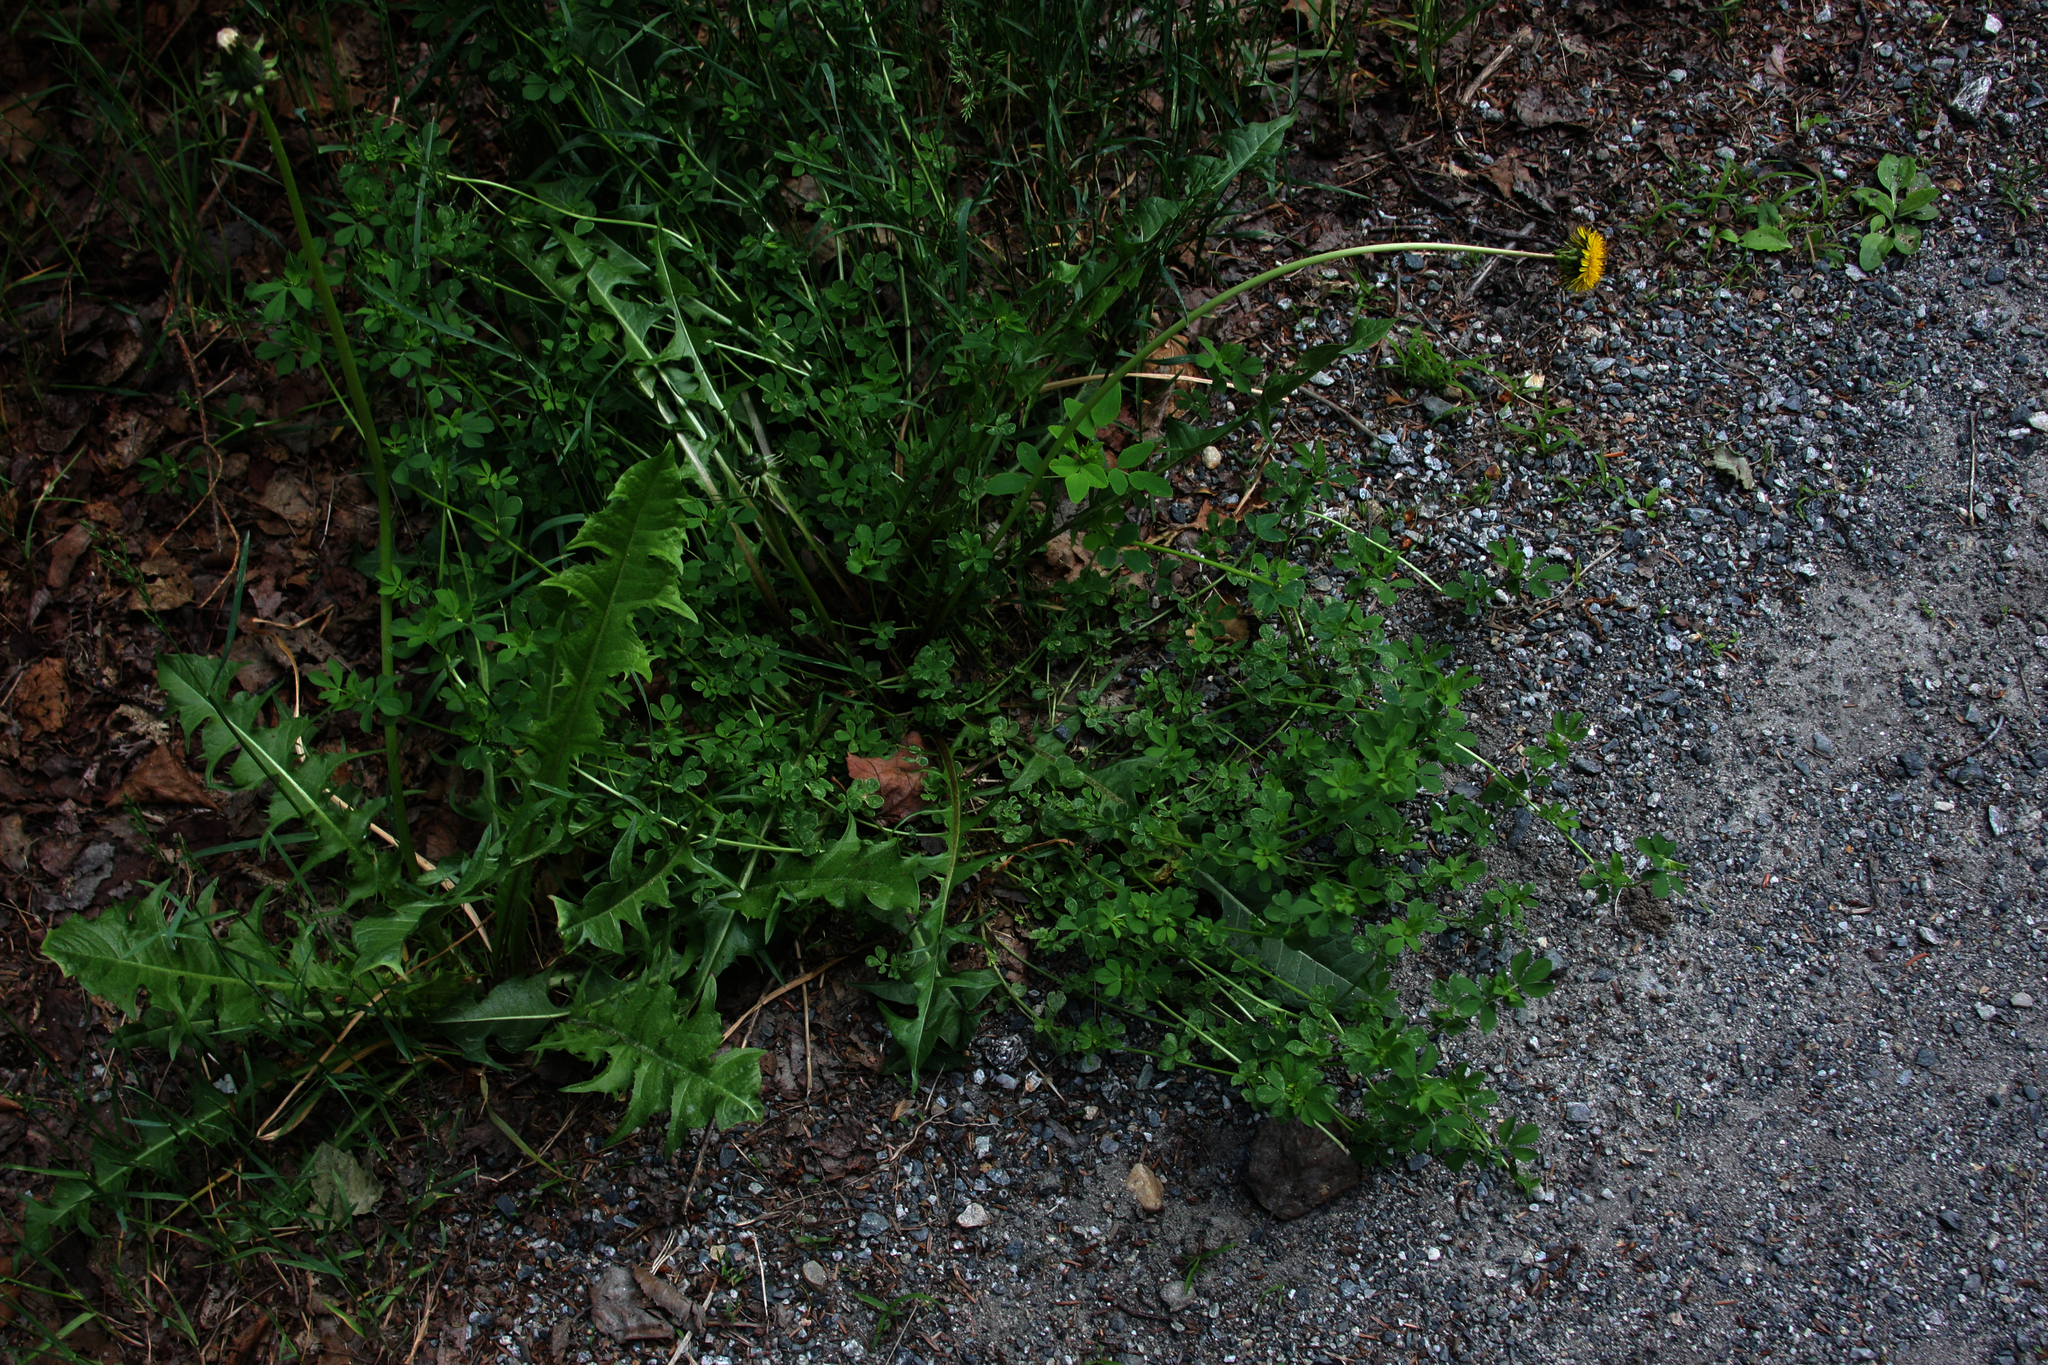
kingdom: Plantae
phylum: Tracheophyta
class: Magnoliopsida
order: Fabales
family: Fabaceae
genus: Lotus
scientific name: Lotus corniculatus
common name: Common bird's-foot-trefoil
